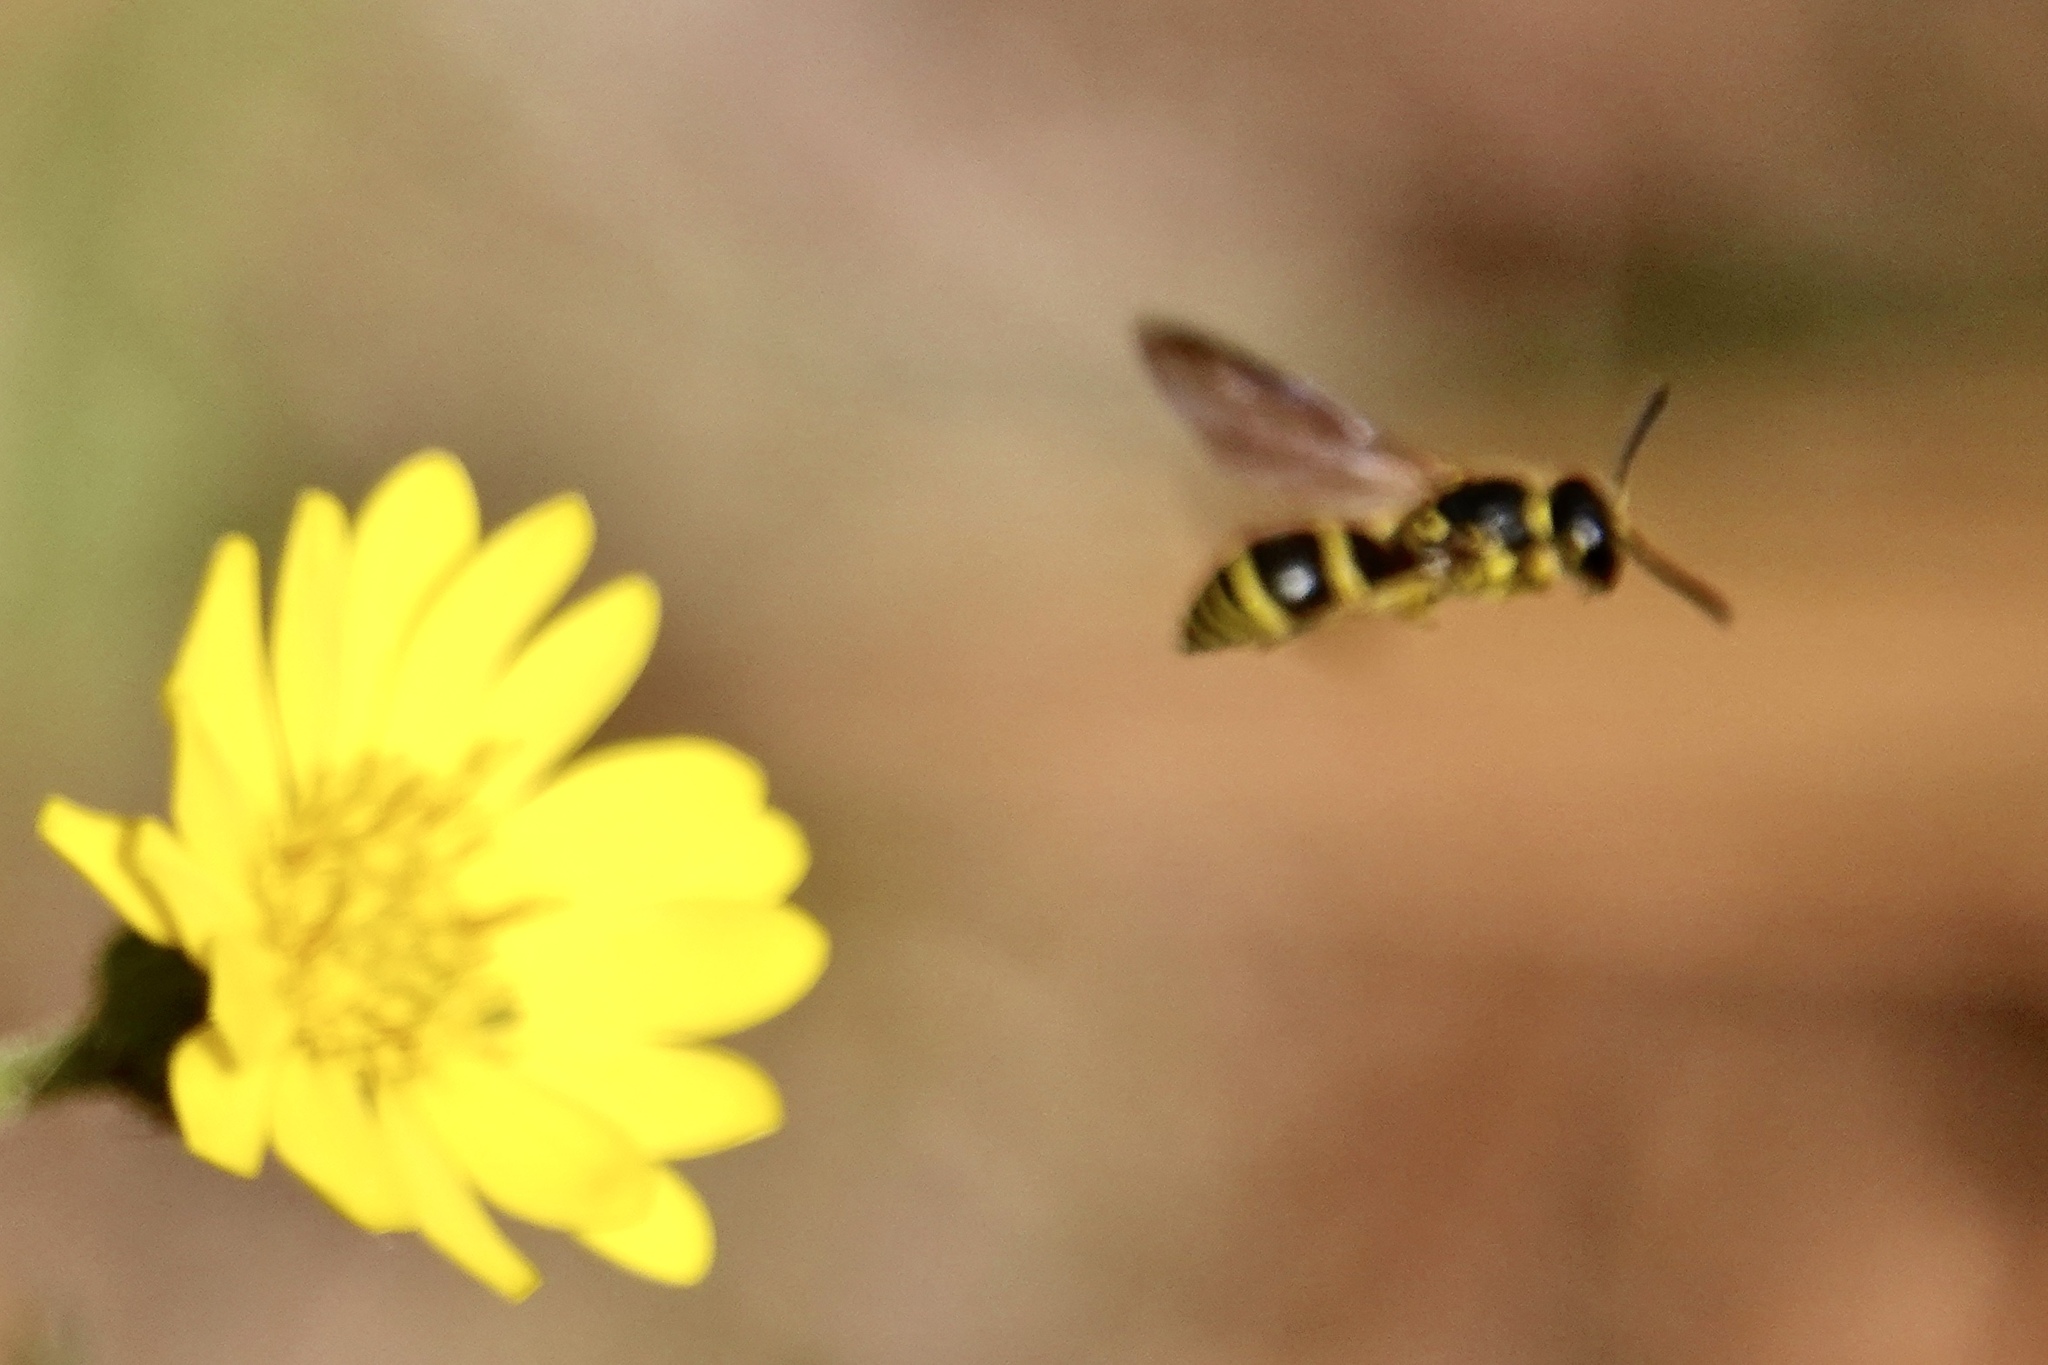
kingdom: Animalia
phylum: Arthropoda
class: Insecta
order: Hymenoptera
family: Vespidae
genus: Ancistrocerus
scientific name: Ancistrocerus adiabatus
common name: Bramble mason wasp
